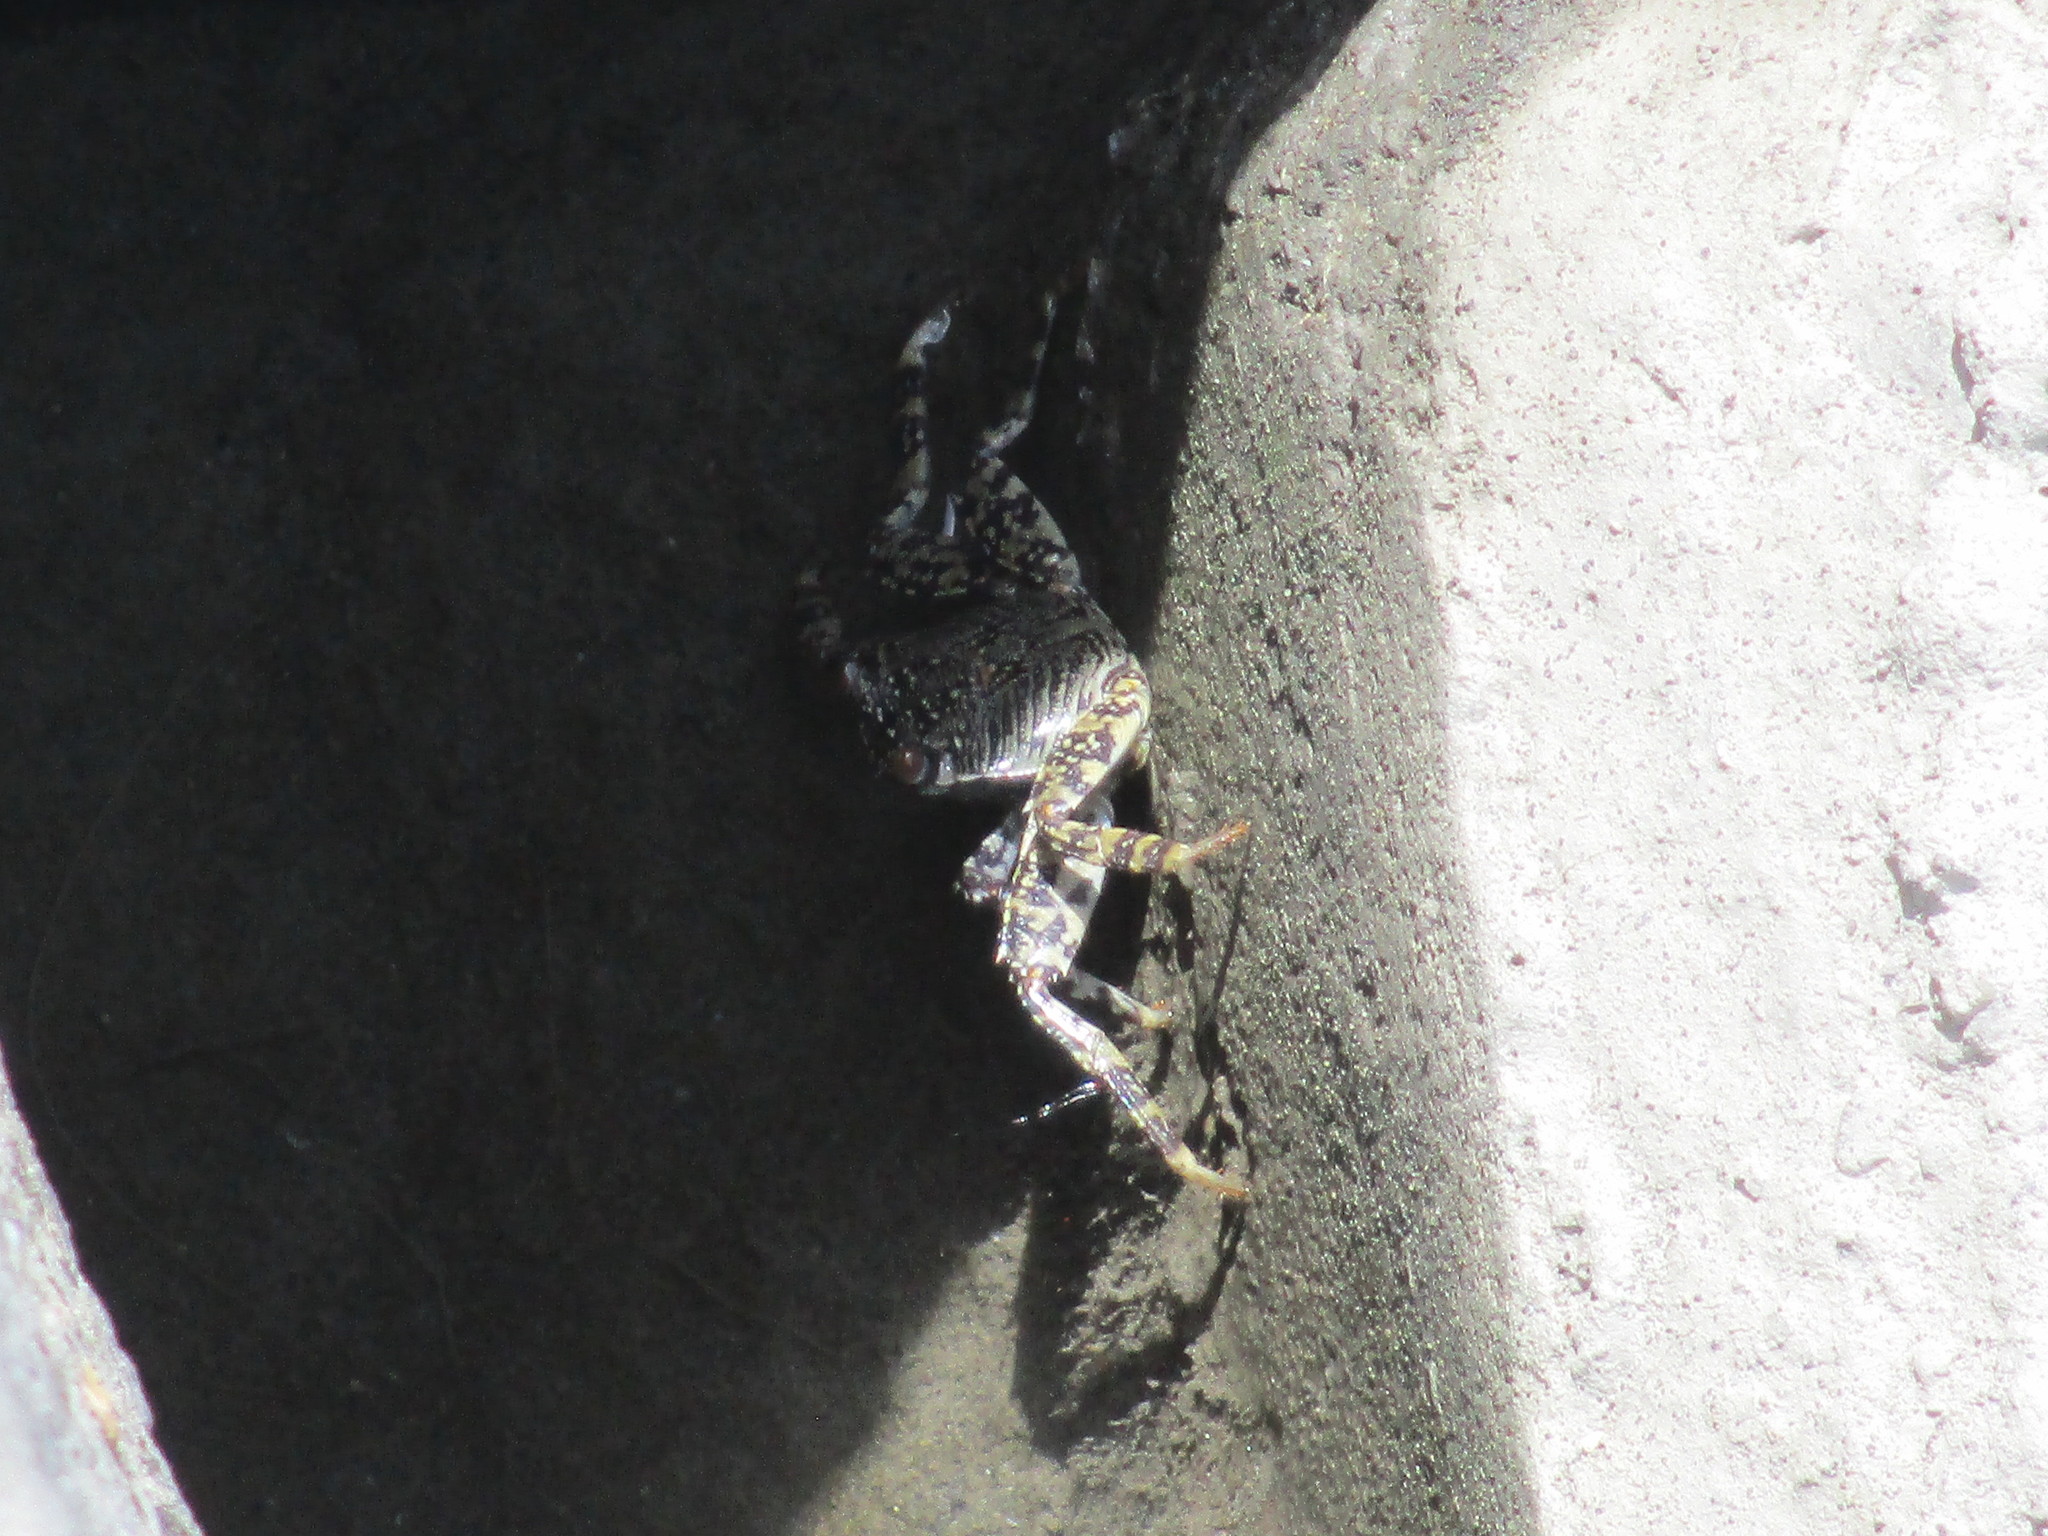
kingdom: Animalia
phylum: Arthropoda
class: Malacostraca
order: Decapoda
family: Grapsidae
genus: Grapsus
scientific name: Grapsus albolineatus
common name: Mottled lightfoot crab
